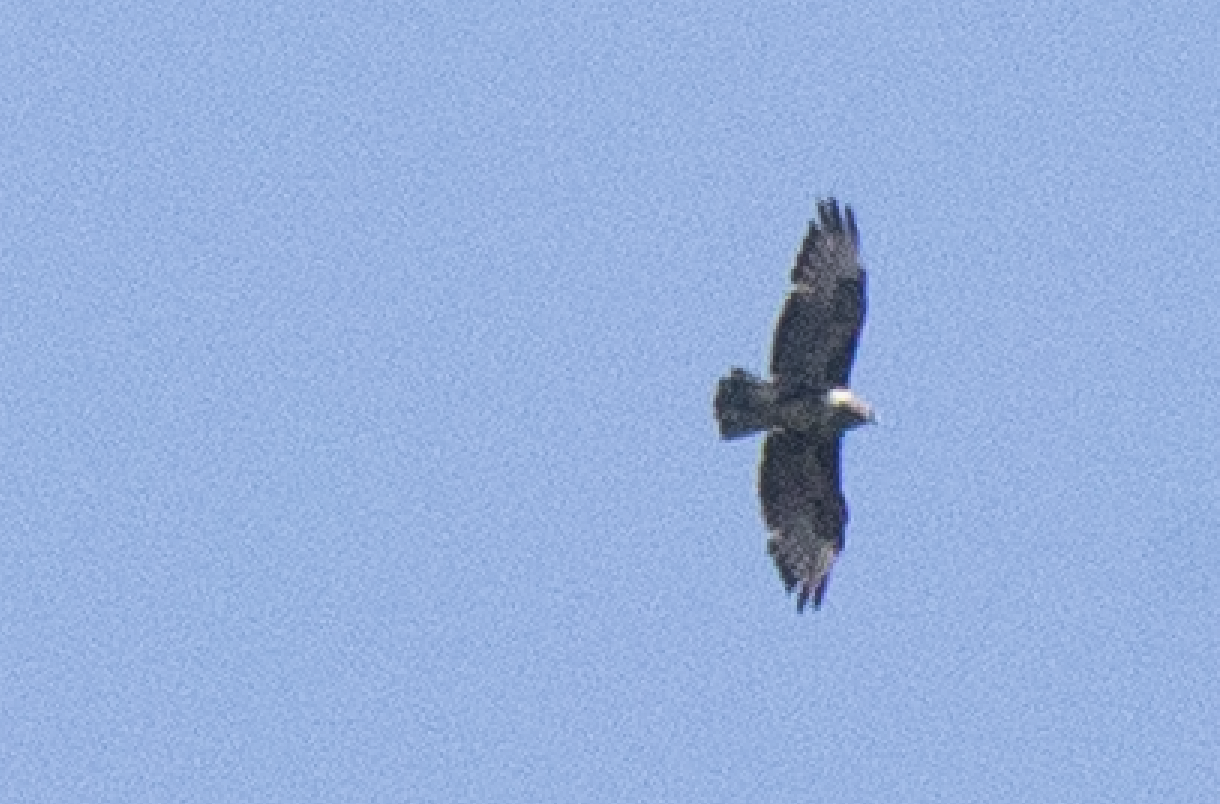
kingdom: Animalia
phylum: Chordata
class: Aves
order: Accipitriformes
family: Accipitridae
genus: Buteo
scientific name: Buteo buteo
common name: Common buzzard
